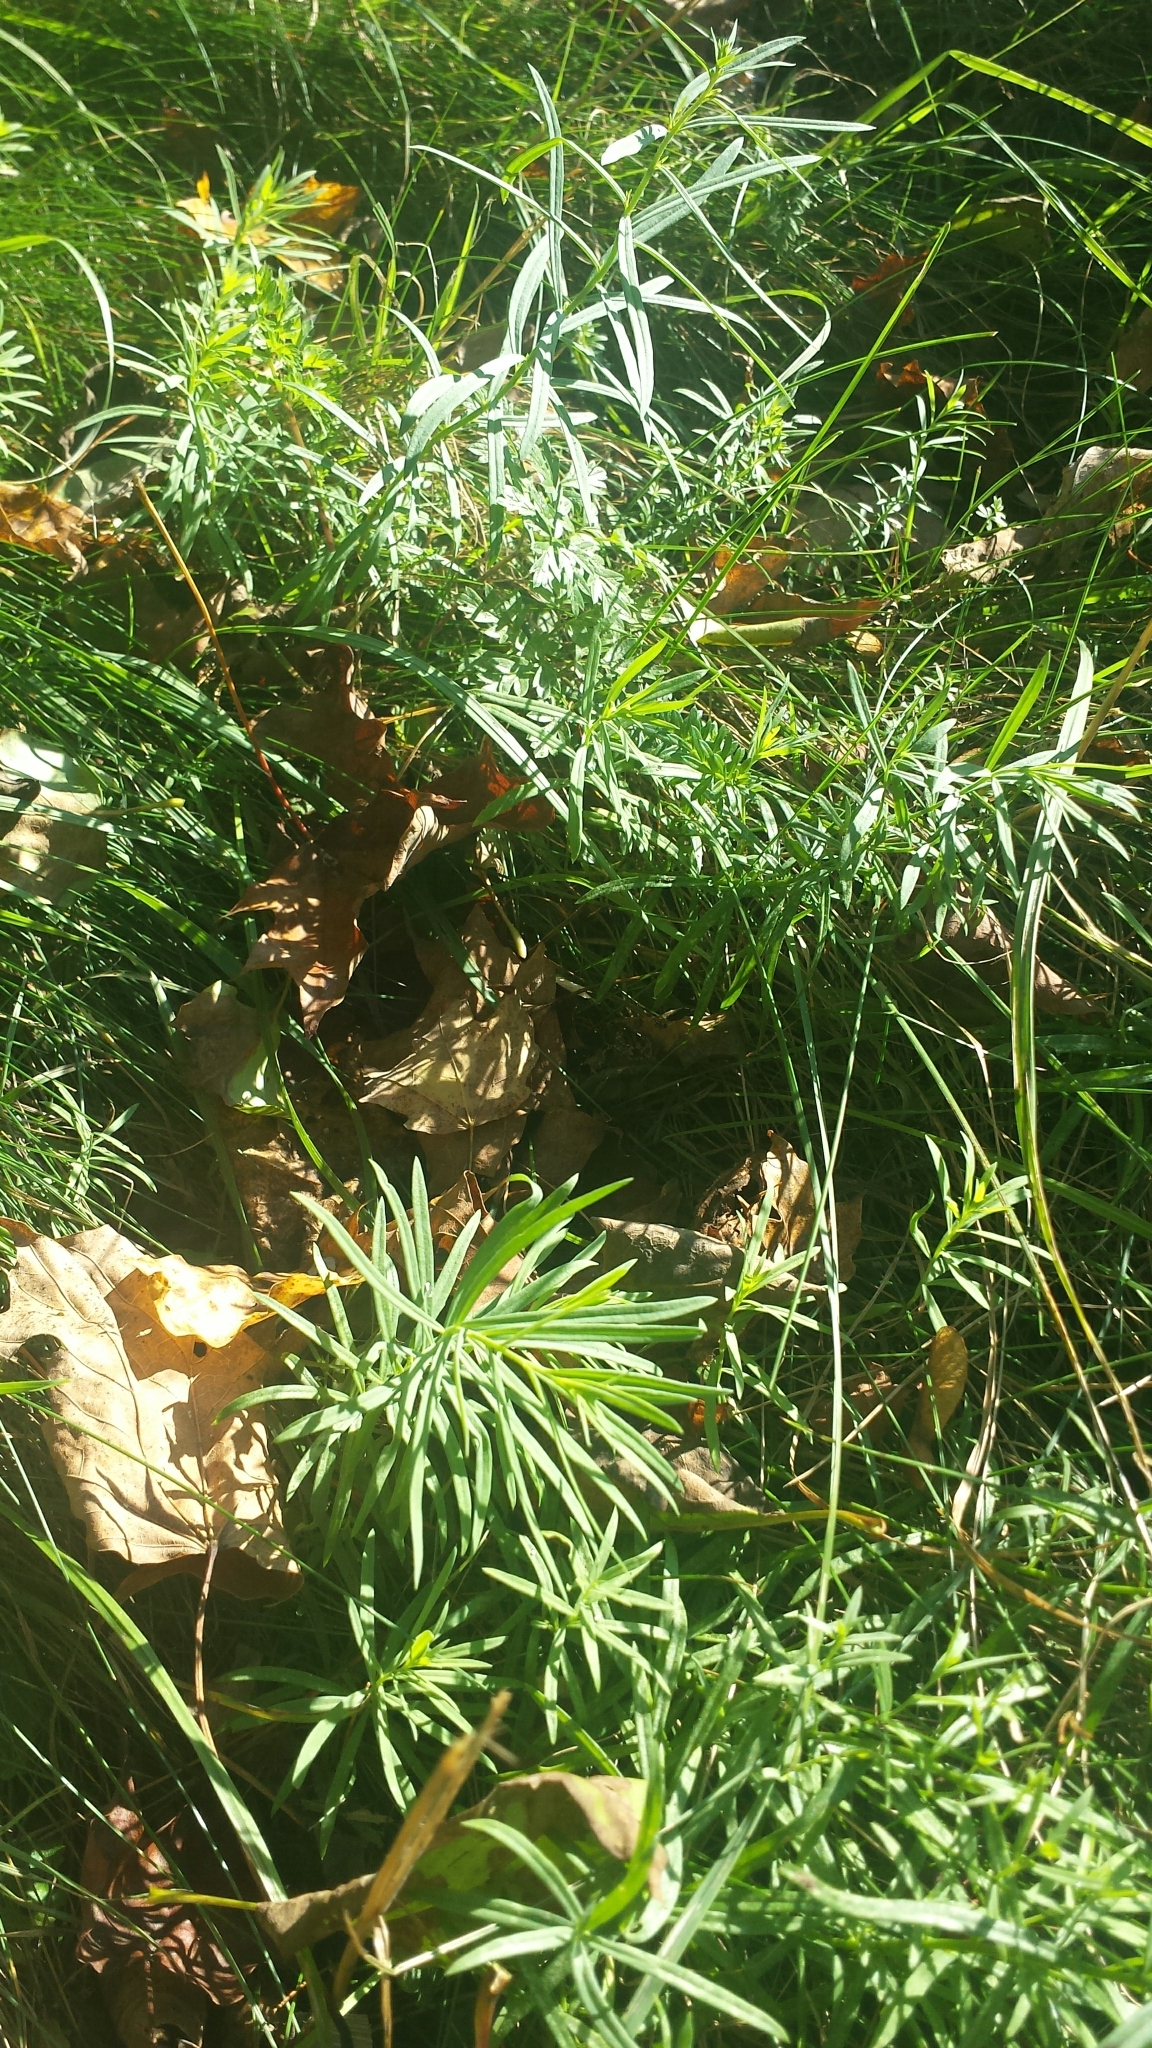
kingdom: Plantae
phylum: Tracheophyta
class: Magnoliopsida
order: Lamiales
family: Plantaginaceae
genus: Linaria
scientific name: Linaria vulgaris
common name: Butter and eggs
